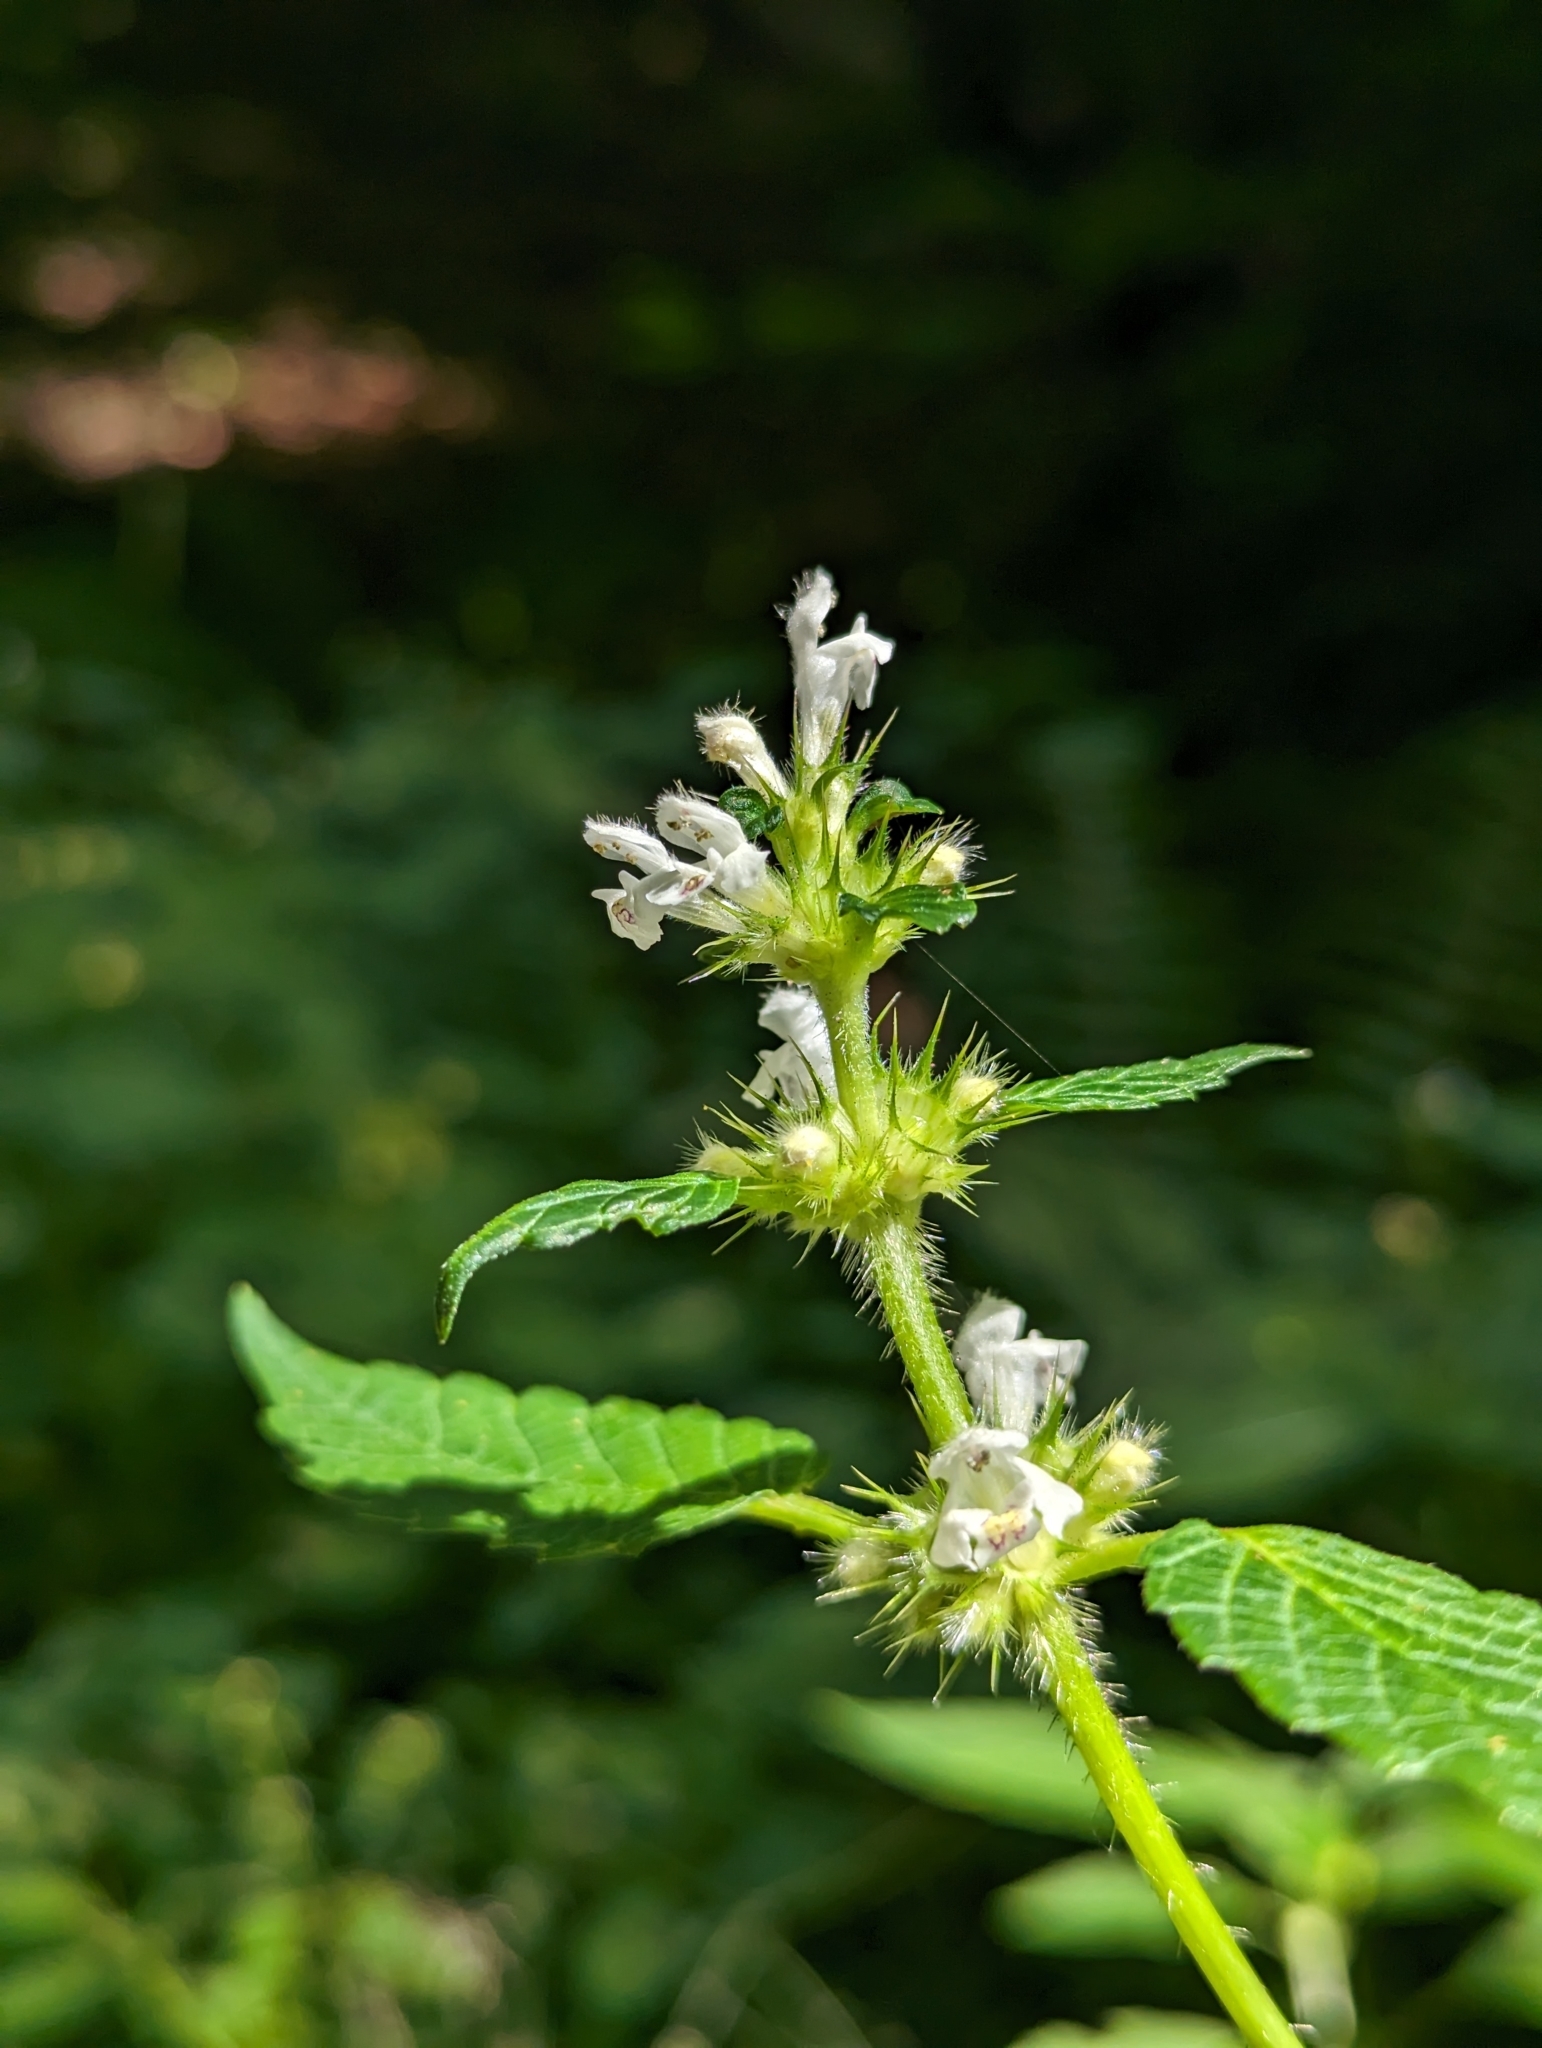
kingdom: Plantae
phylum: Tracheophyta
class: Magnoliopsida
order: Lamiales
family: Lamiaceae
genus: Galeopsis
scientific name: Galeopsis tetrahit
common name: Common hemp-nettle
